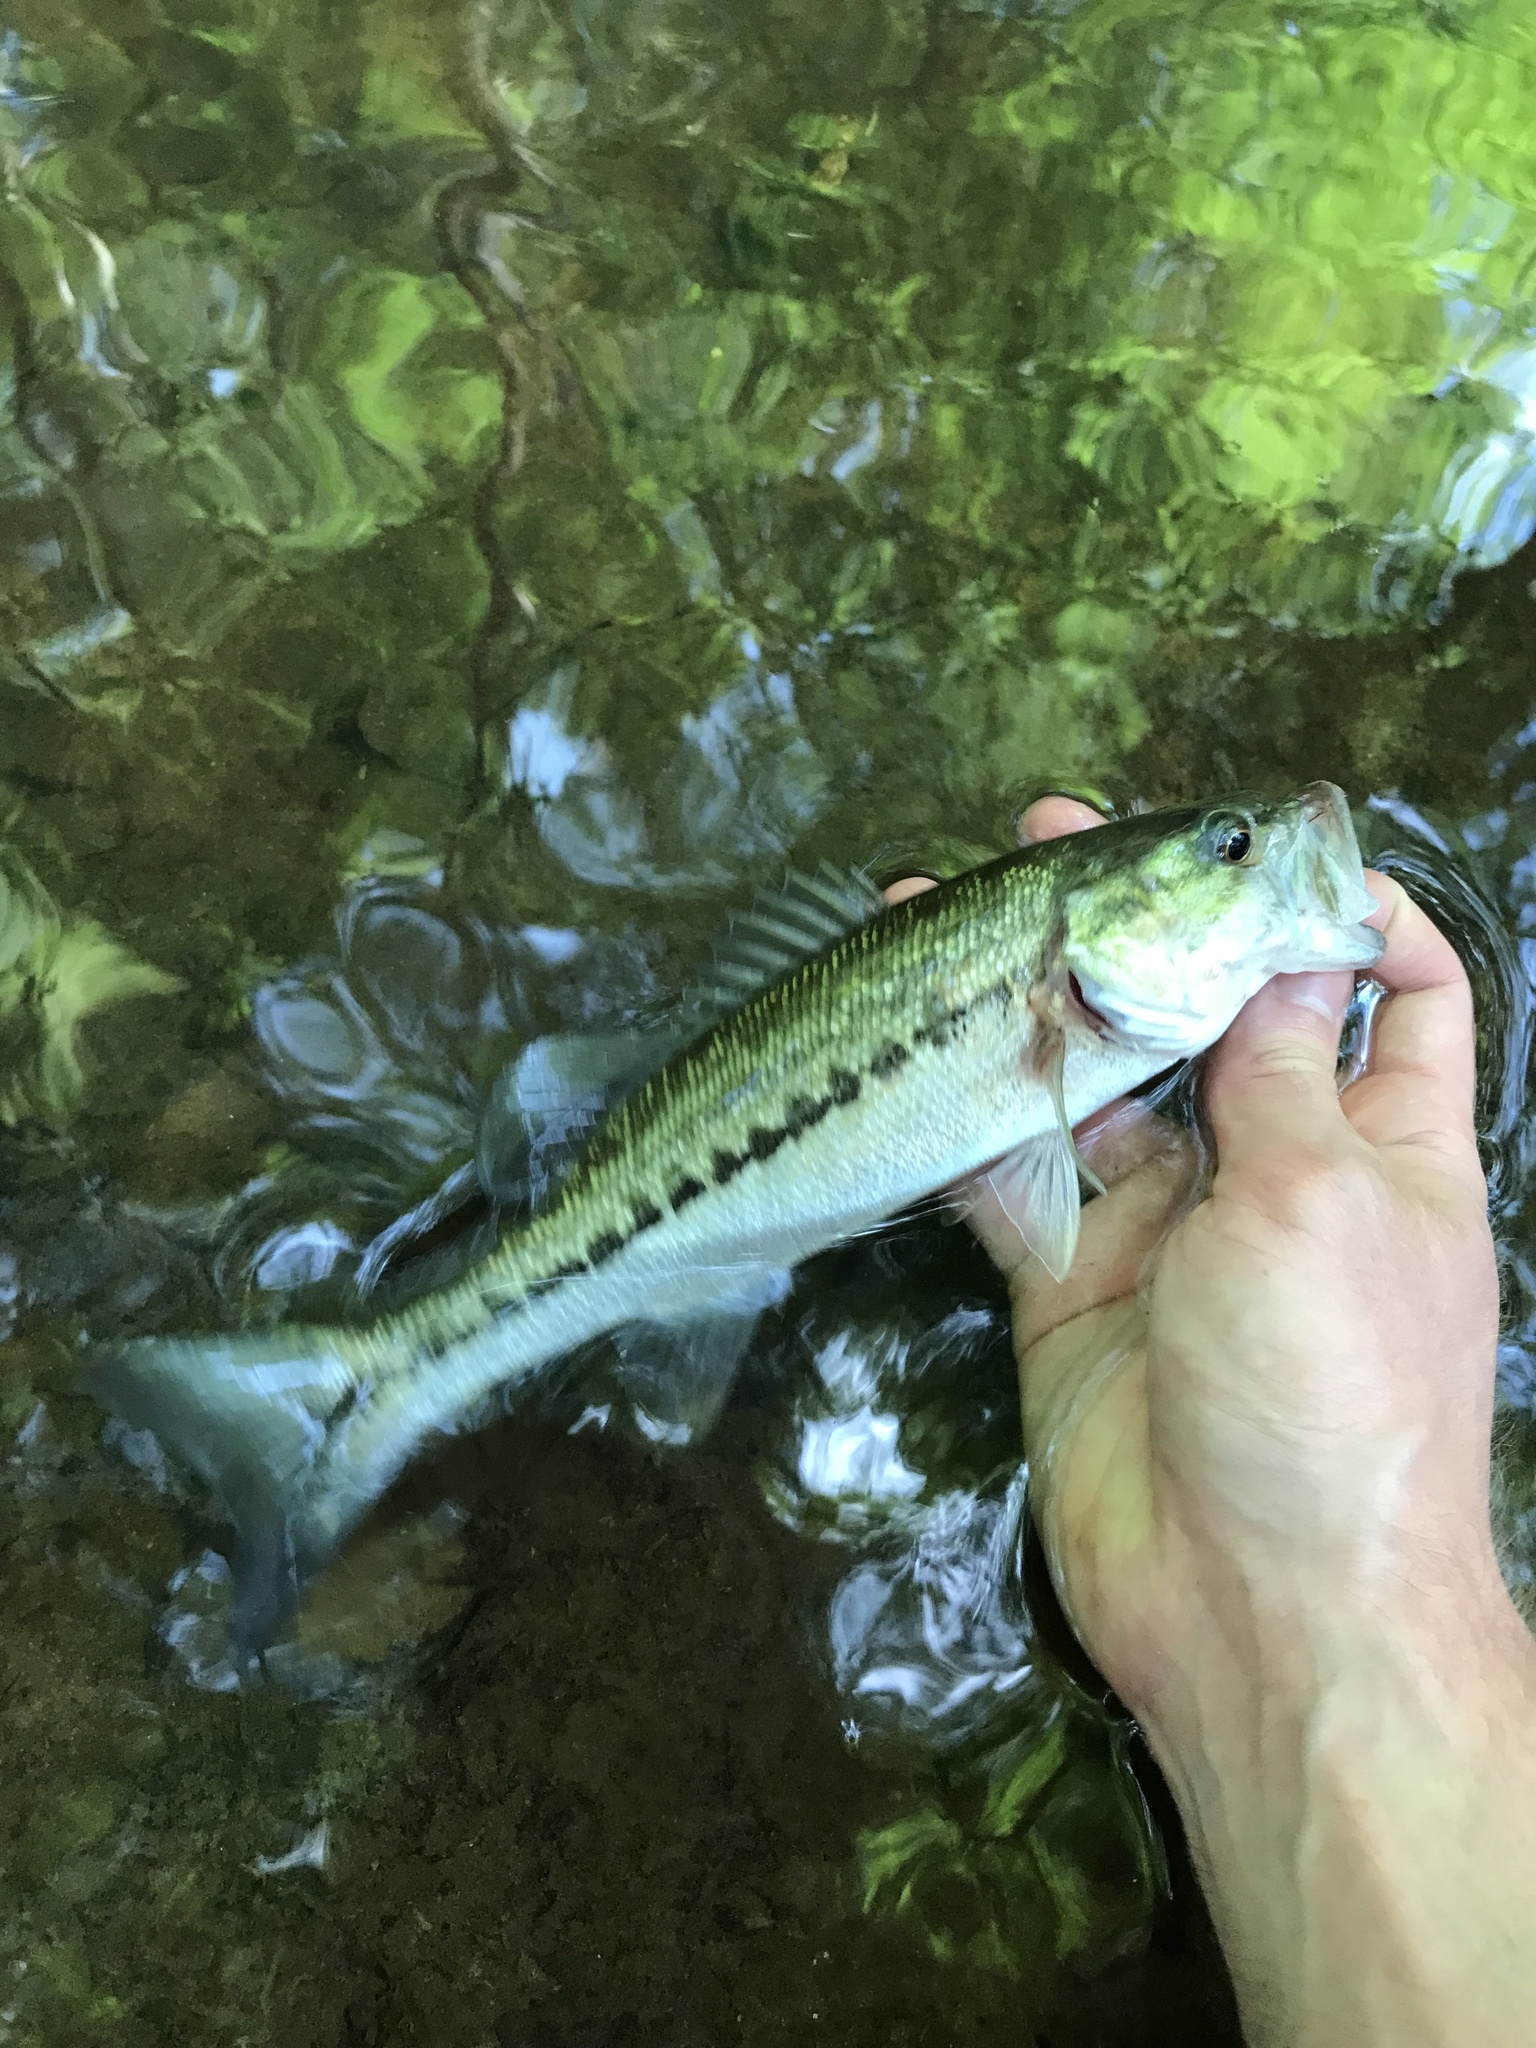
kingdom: Animalia
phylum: Chordata
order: Perciformes
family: Centrarchidae
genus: Micropterus
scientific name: Micropterus henshalli
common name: Alabama bass
